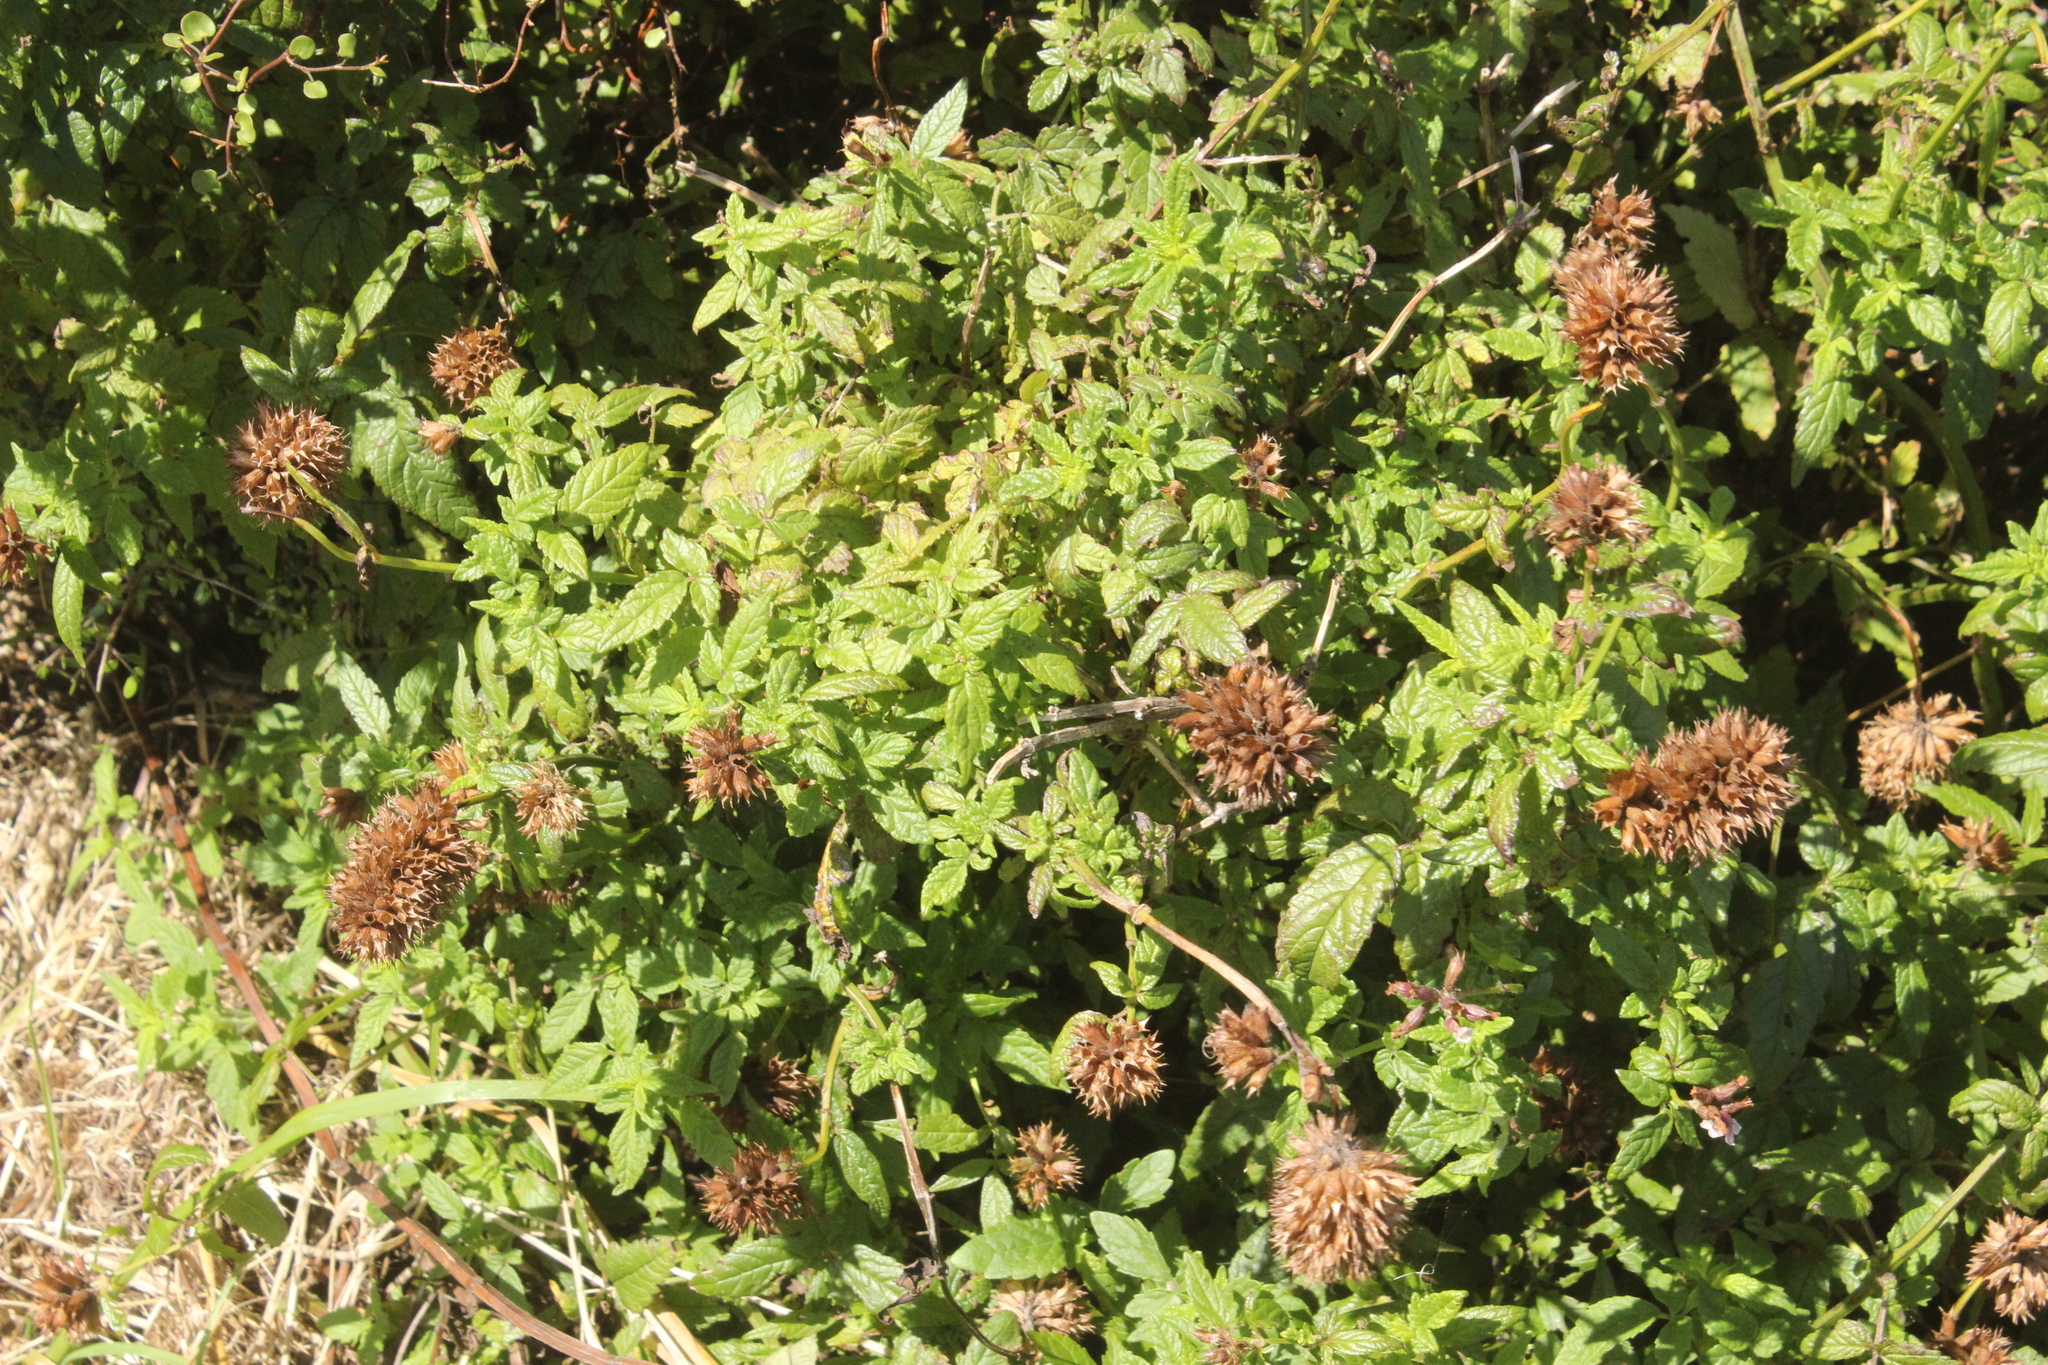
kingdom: Plantae
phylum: Tracheophyta
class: Magnoliopsida
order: Lamiales
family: Lamiaceae
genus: Cedronella
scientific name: Cedronella canariensis
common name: Canary islands balm
